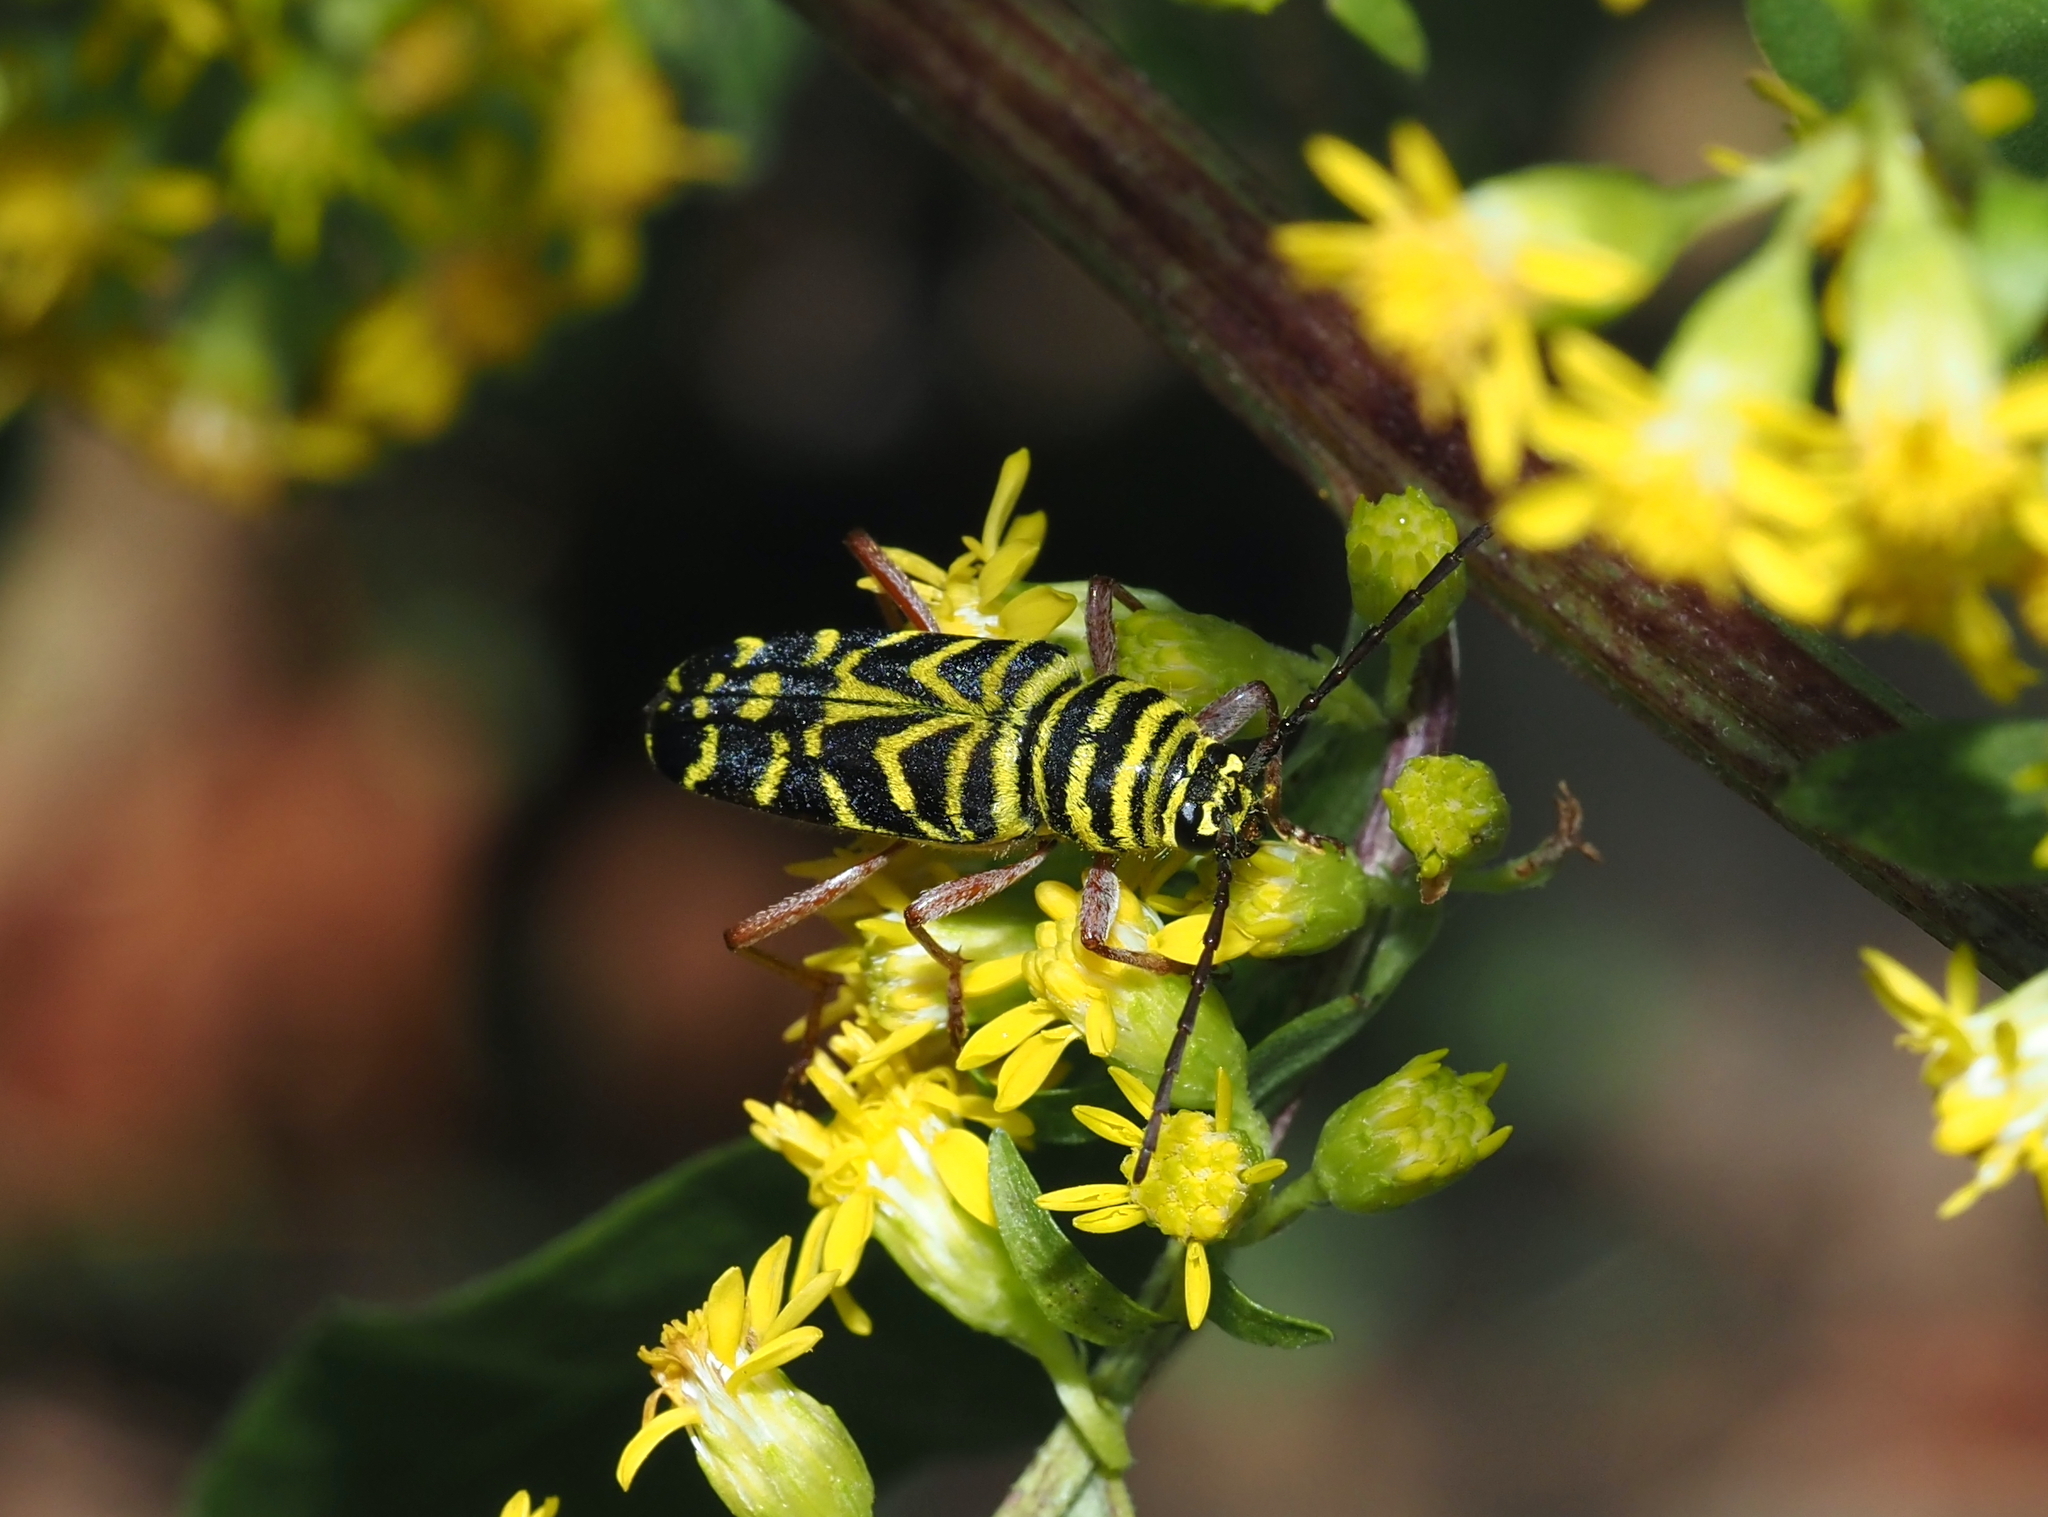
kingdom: Animalia
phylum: Arthropoda
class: Insecta
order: Coleoptera
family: Cerambycidae
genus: Megacyllene
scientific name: Megacyllene robiniae
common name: Locust borer
